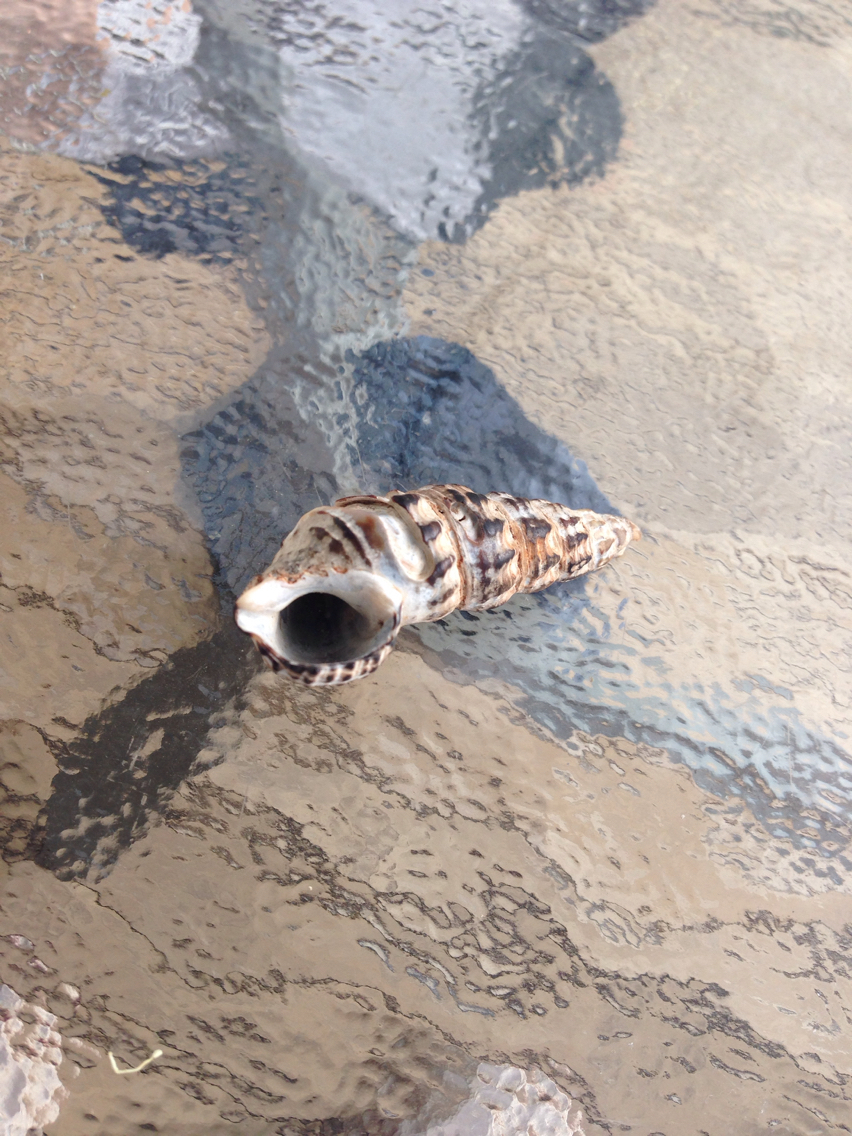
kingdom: Animalia
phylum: Mollusca
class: Gastropoda
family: Batillariidae
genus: Batillaria
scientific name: Batillaria australis
